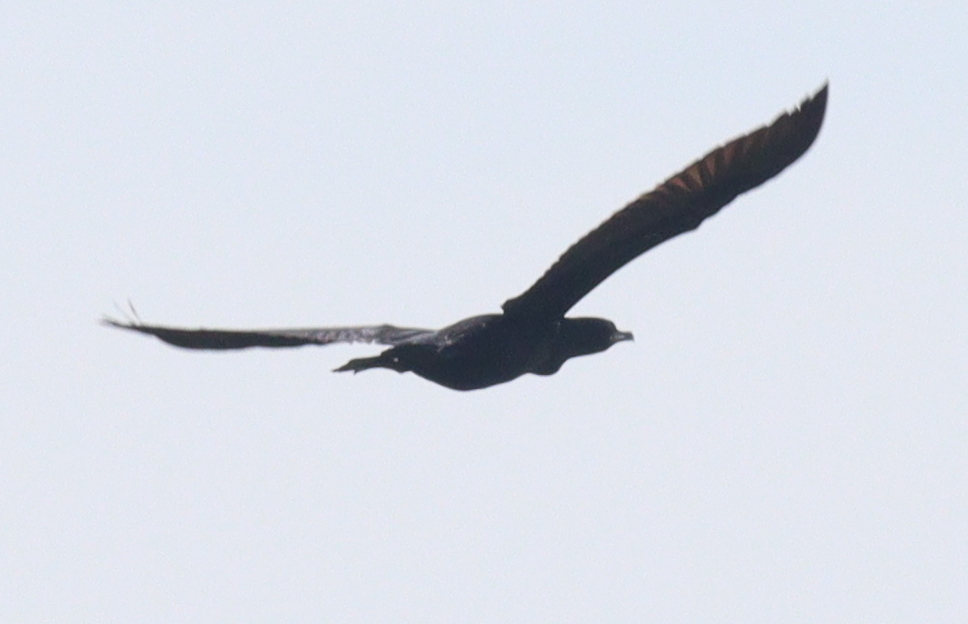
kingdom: Animalia
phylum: Chordata
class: Aves
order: Suliformes
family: Phalacrocoracidae
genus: Phalacrocorax
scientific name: Phalacrocorax brasilianus
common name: Neotropic cormorant
